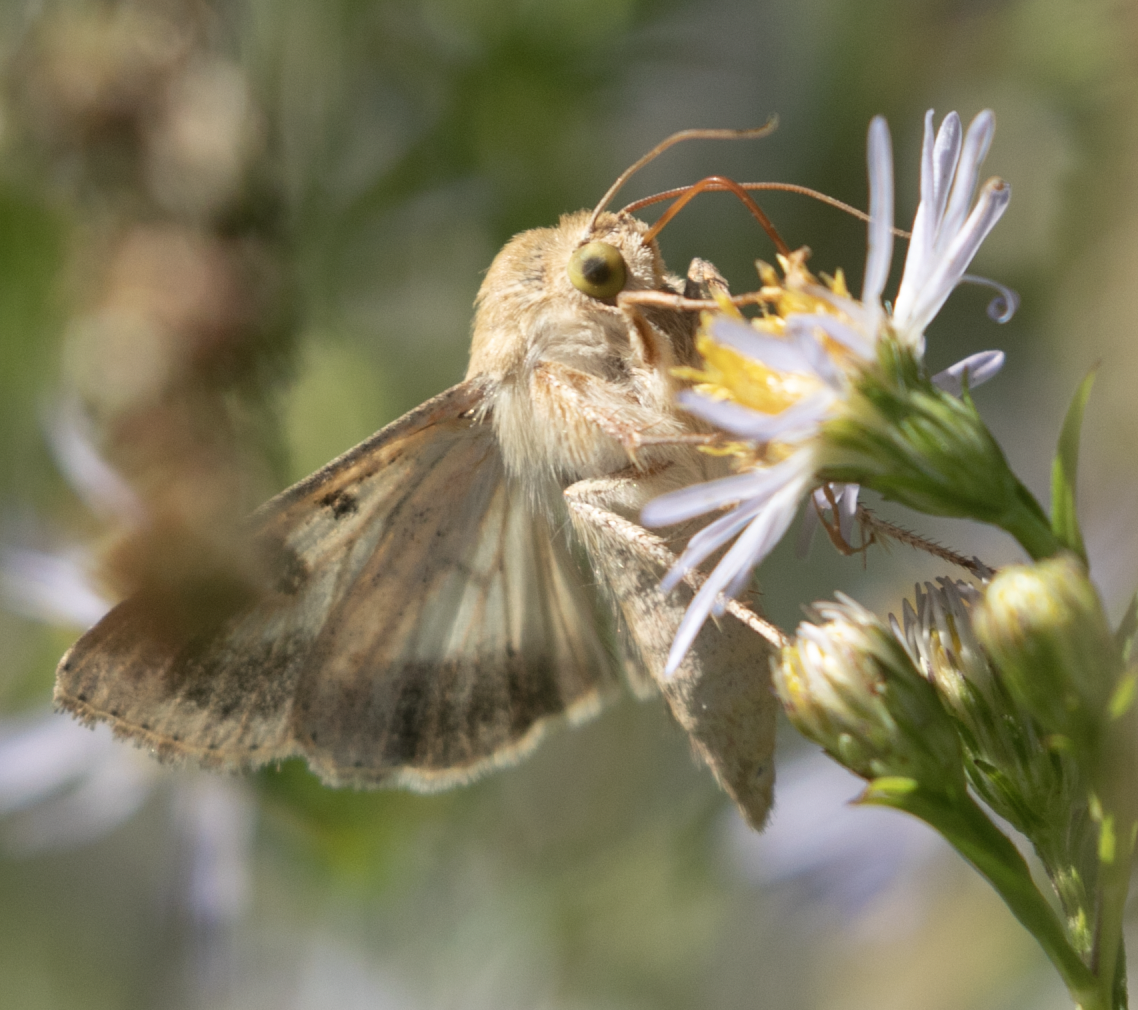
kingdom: Animalia
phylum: Arthropoda
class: Insecta
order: Lepidoptera
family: Noctuidae
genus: Helicoverpa
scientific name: Helicoverpa armigera
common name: Cotton bollworm
